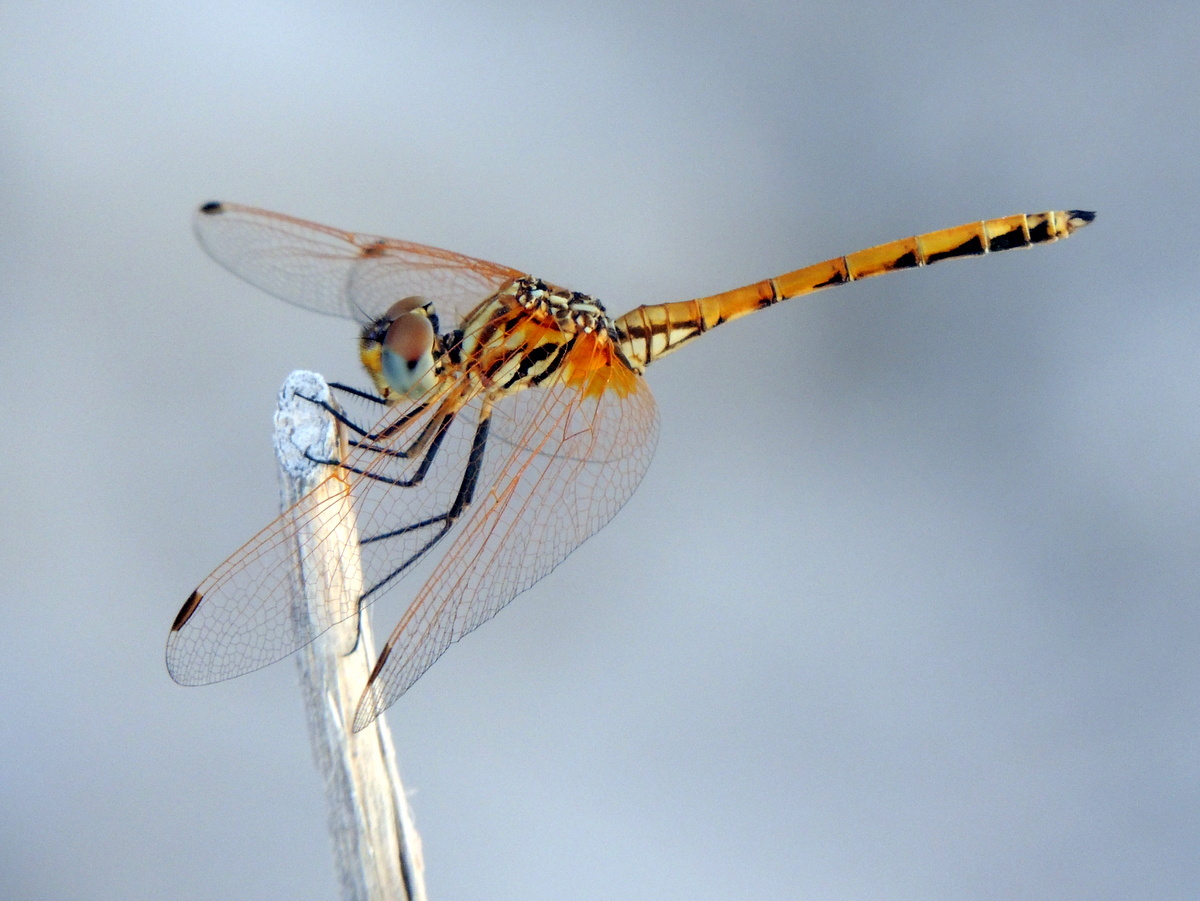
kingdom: Animalia
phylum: Arthropoda
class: Insecta
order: Odonata
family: Libellulidae
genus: Trithemis
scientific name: Trithemis arteriosa
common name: Red-veined dropwing
